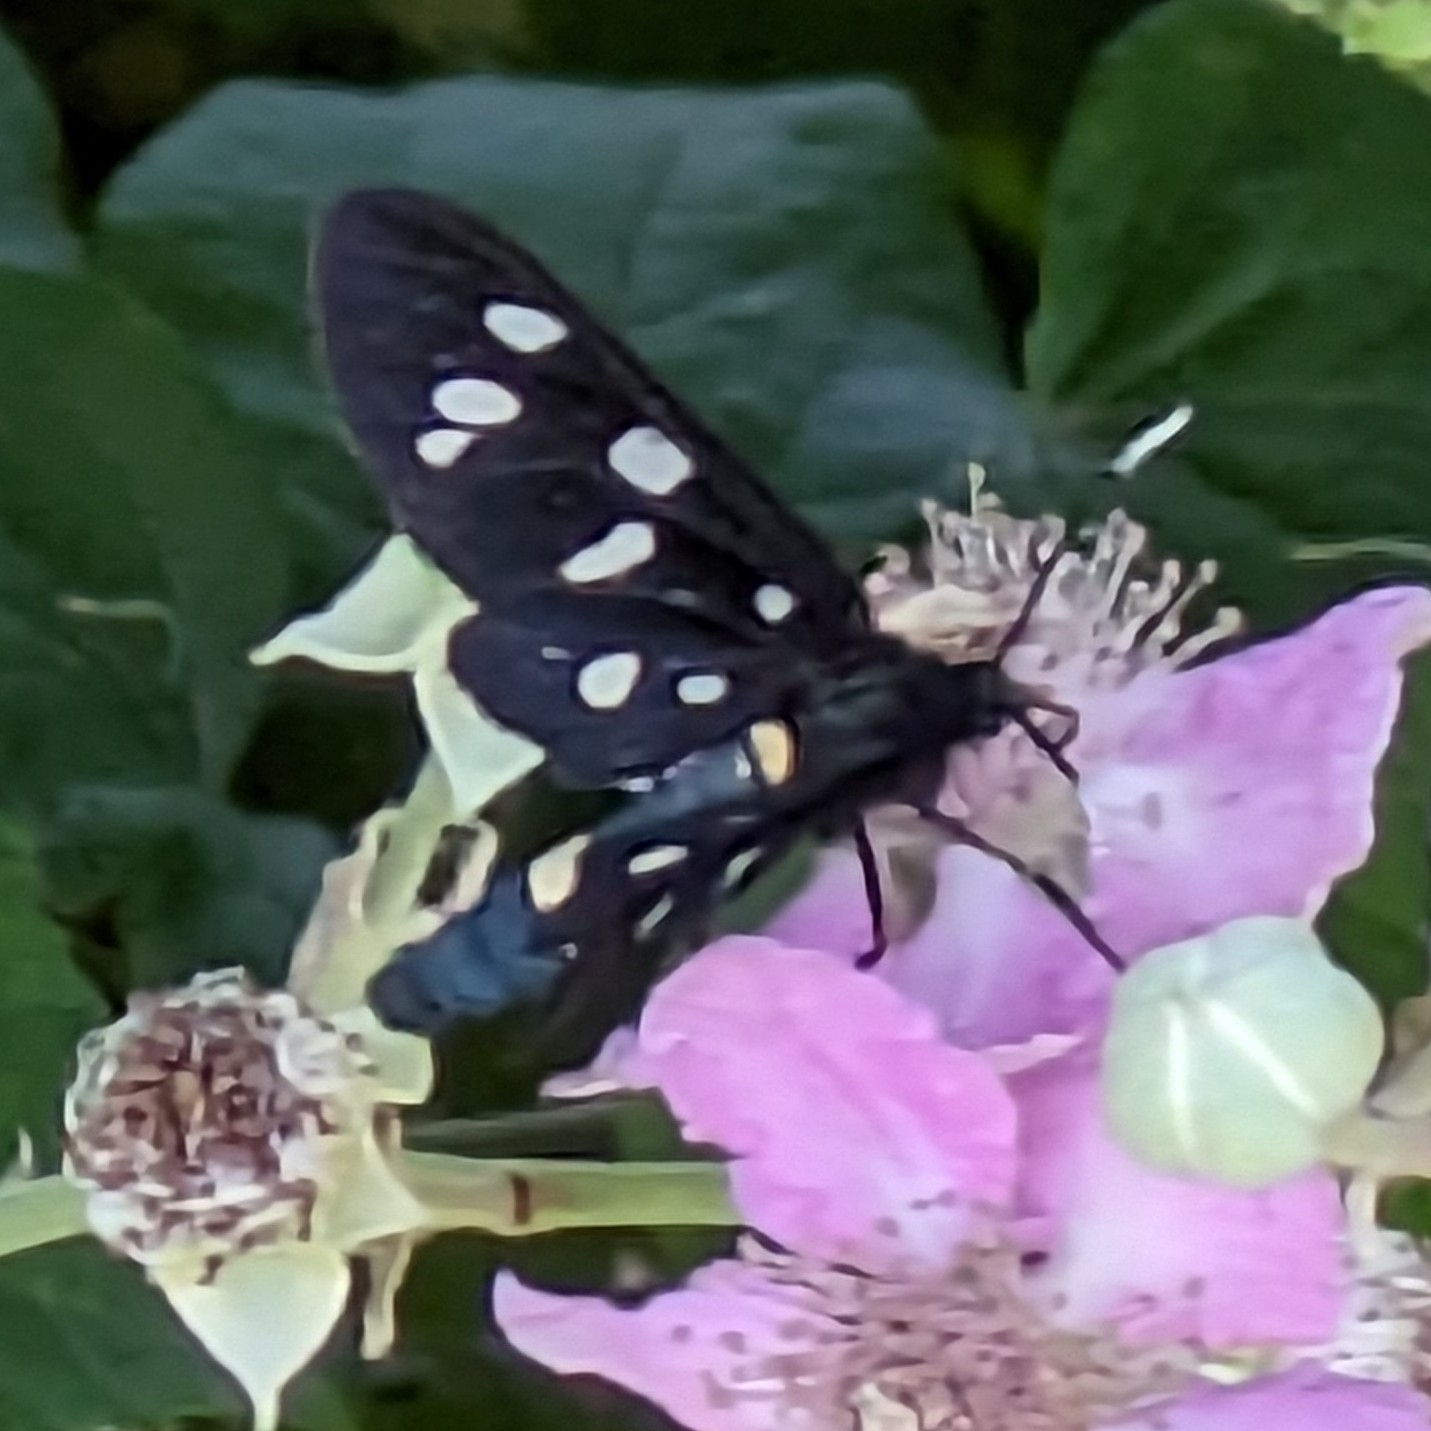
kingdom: Animalia
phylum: Arthropoda
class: Insecta
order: Lepidoptera
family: Erebidae
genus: Amata
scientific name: Amata phegea
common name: Nine-spotted
